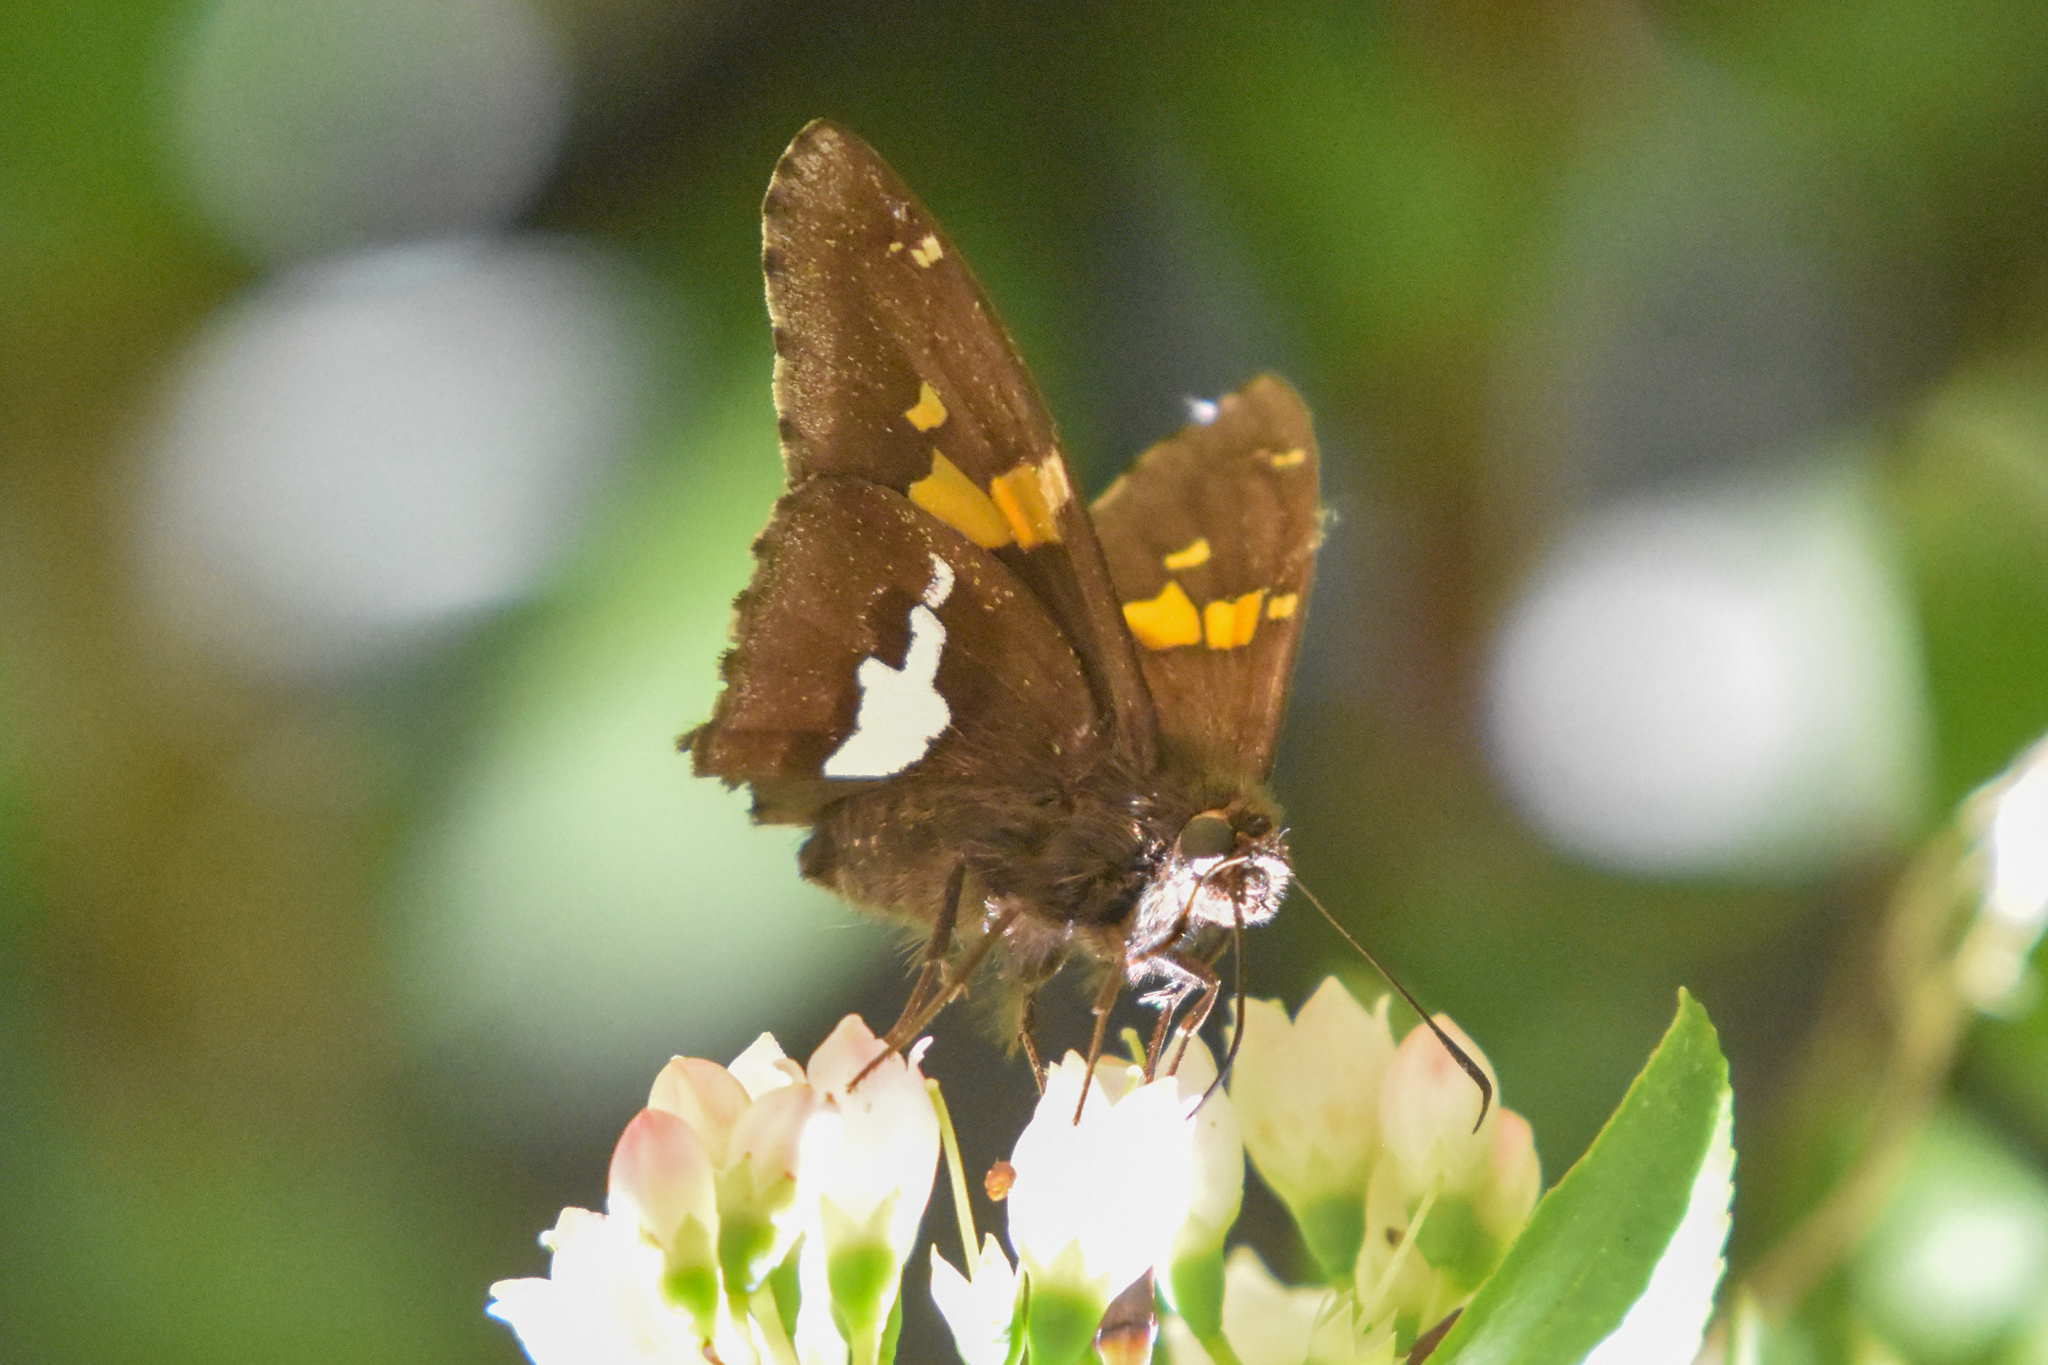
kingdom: Animalia
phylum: Arthropoda
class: Insecta
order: Lepidoptera
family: Hesperiidae
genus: Epargyreus
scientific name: Epargyreus clarus
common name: Silver-spotted skipper
